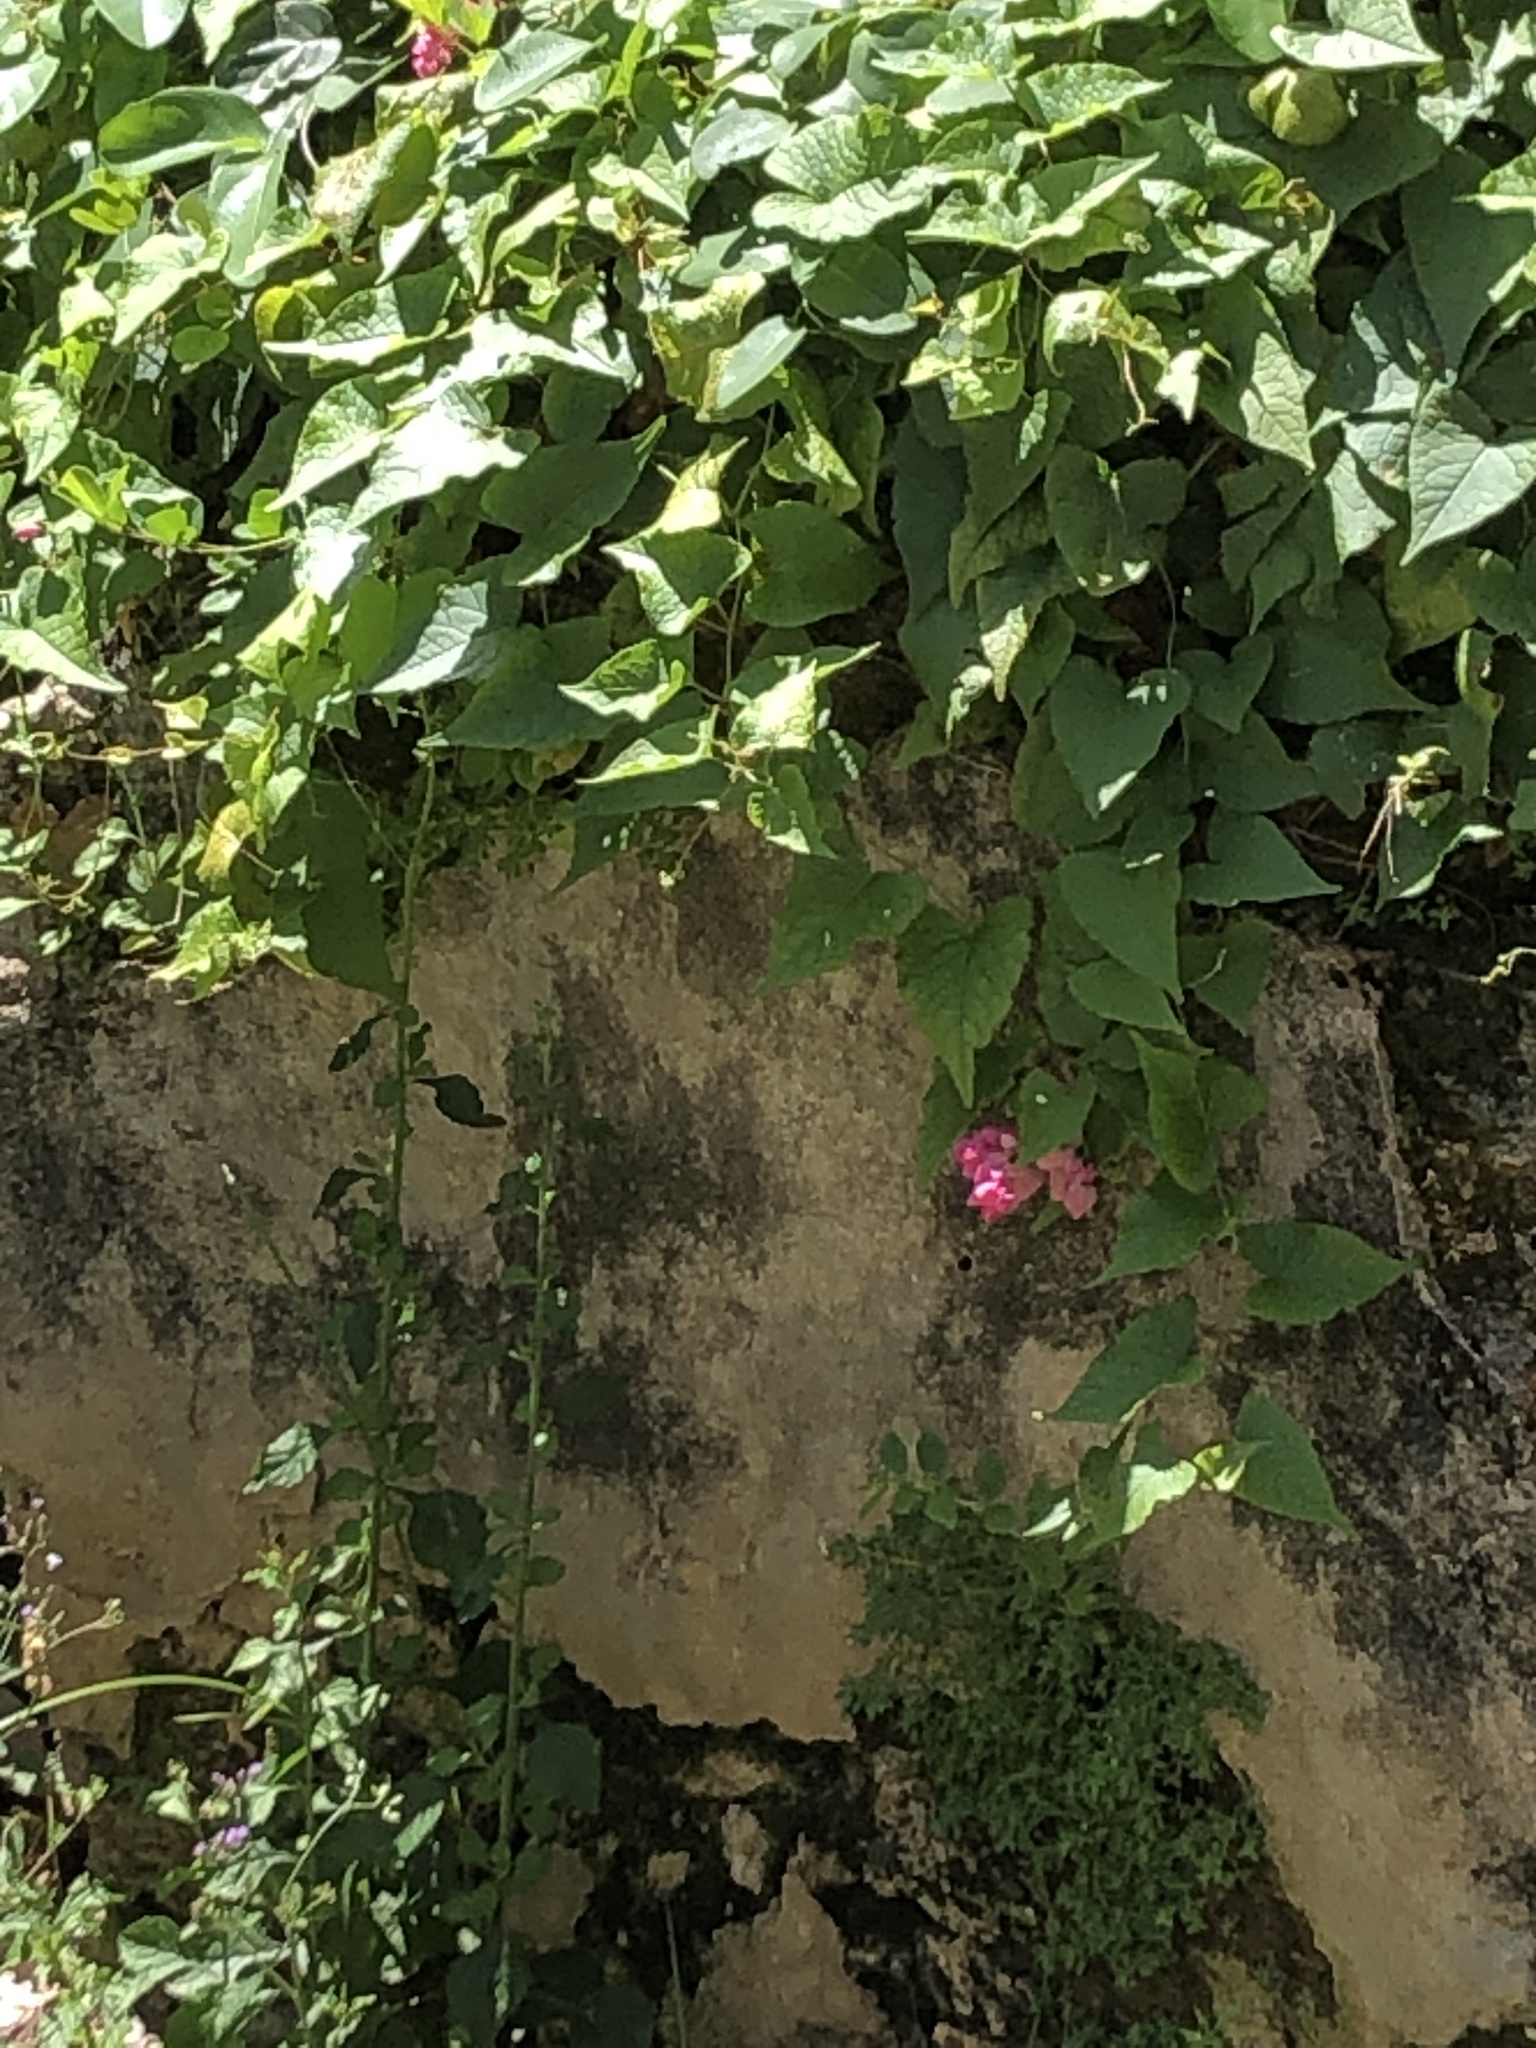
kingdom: Plantae
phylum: Tracheophyta
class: Magnoliopsida
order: Caryophyllales
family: Polygonaceae
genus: Antigonon
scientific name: Antigonon leptopus
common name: Coral vine
